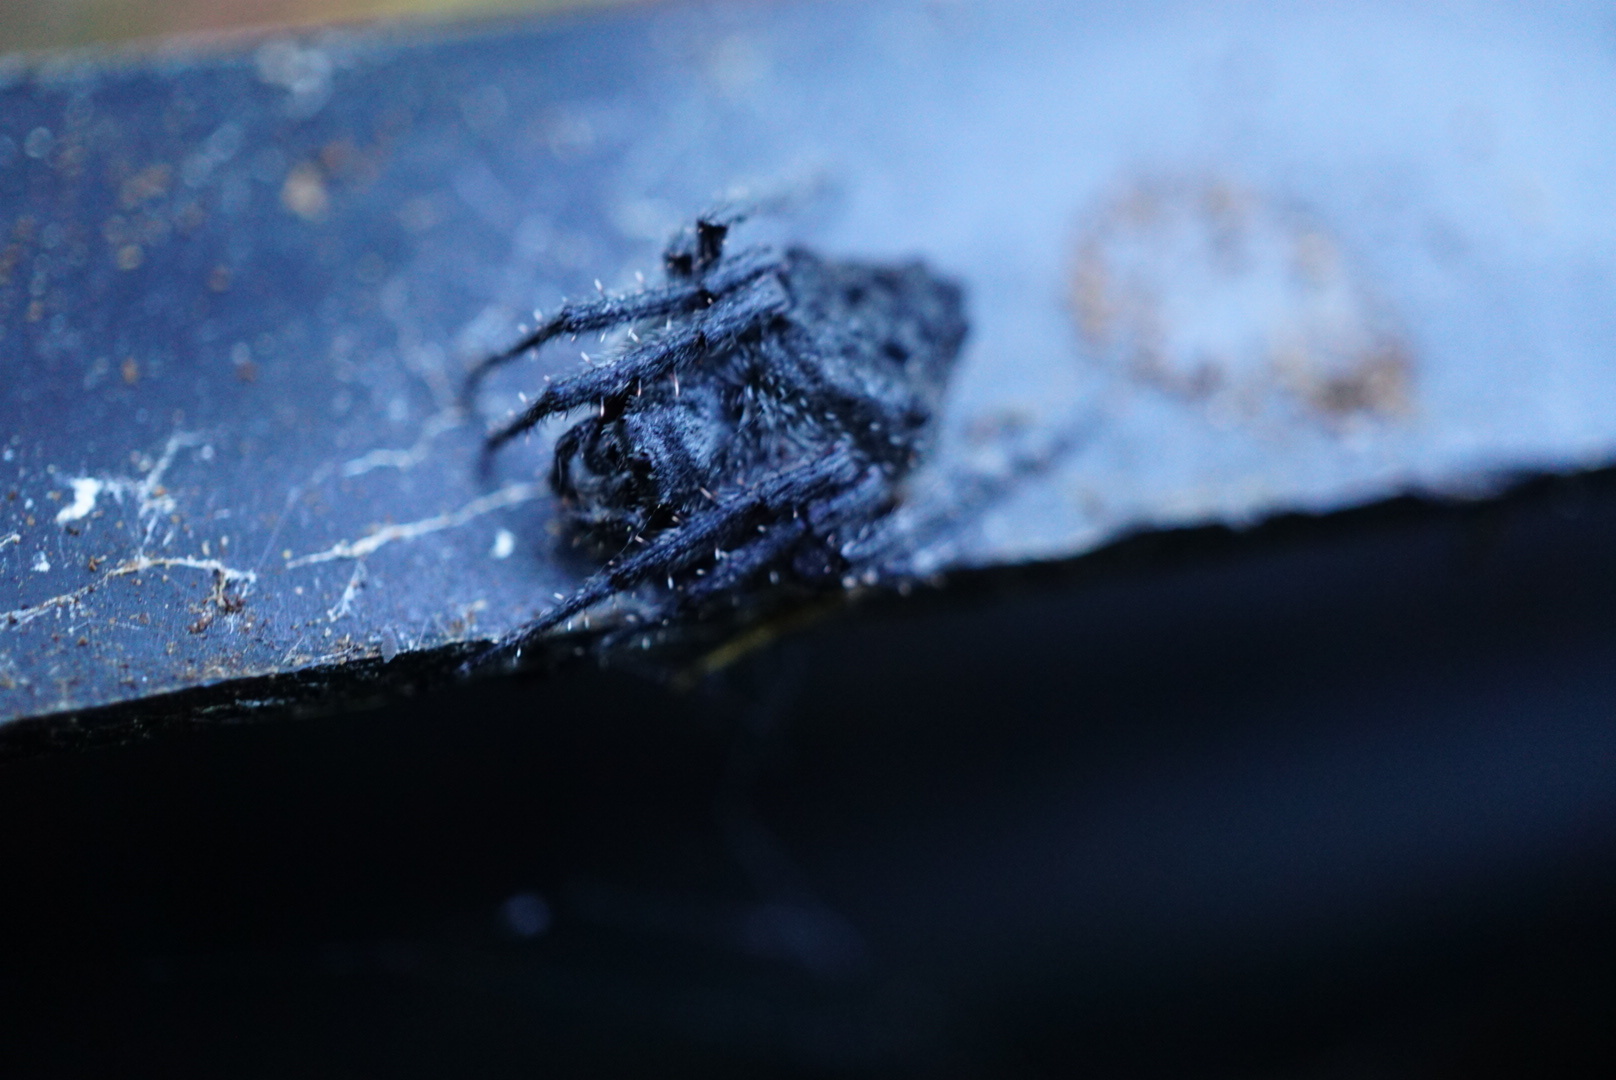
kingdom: Animalia
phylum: Arthropoda
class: Arachnida
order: Araneae
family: Araneidae
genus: Eriophora
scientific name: Eriophora pustulosa
